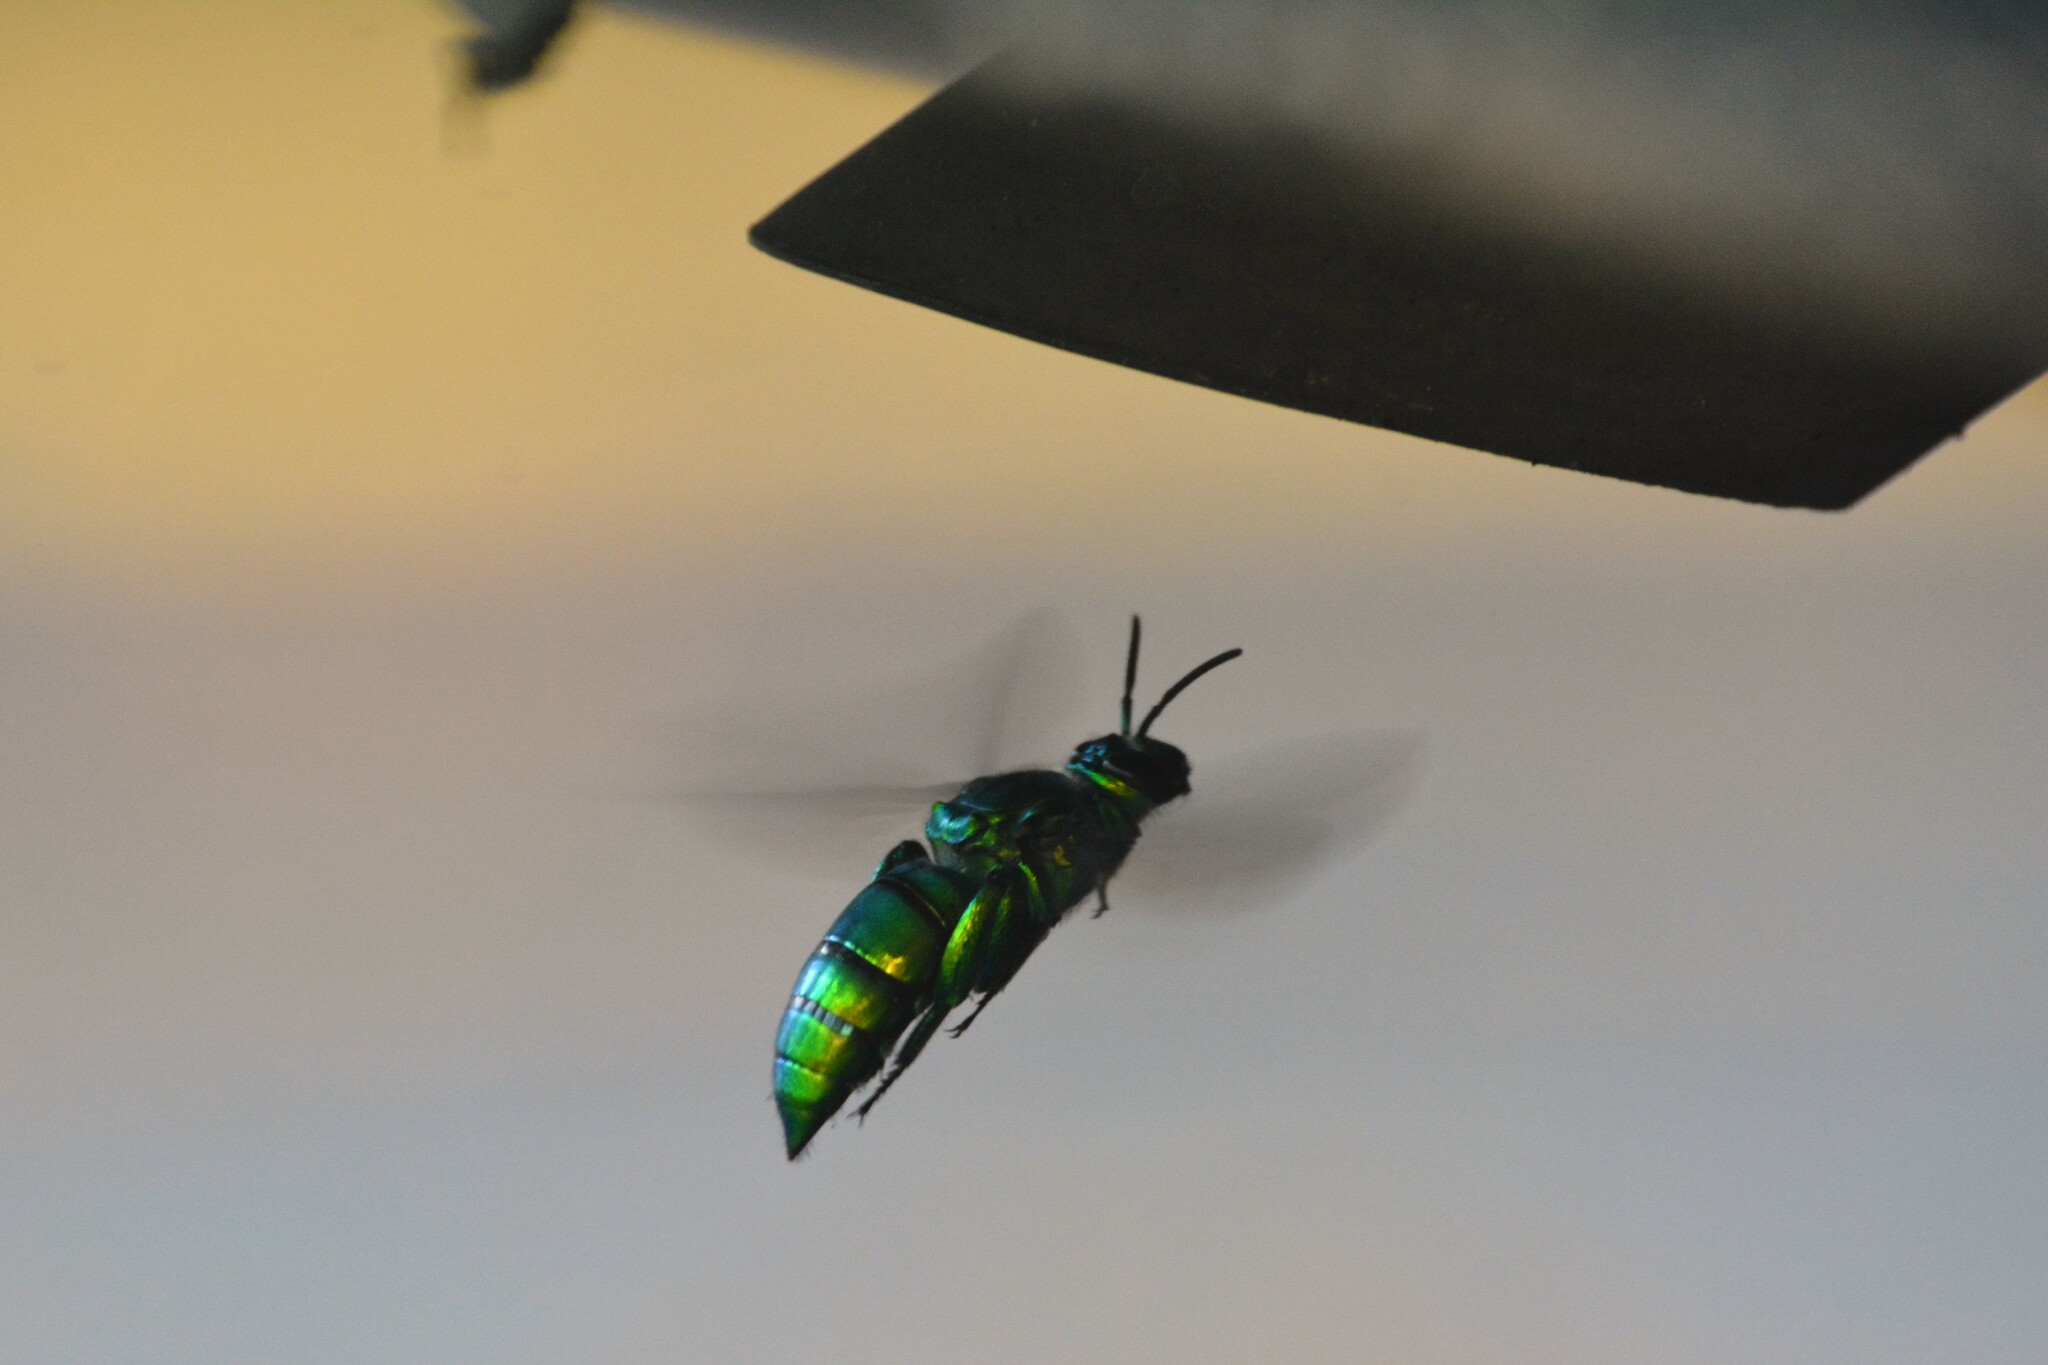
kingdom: Animalia
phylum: Arthropoda
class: Insecta
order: Hymenoptera
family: Apidae
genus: Exaerete
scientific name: Exaerete smaragdina
